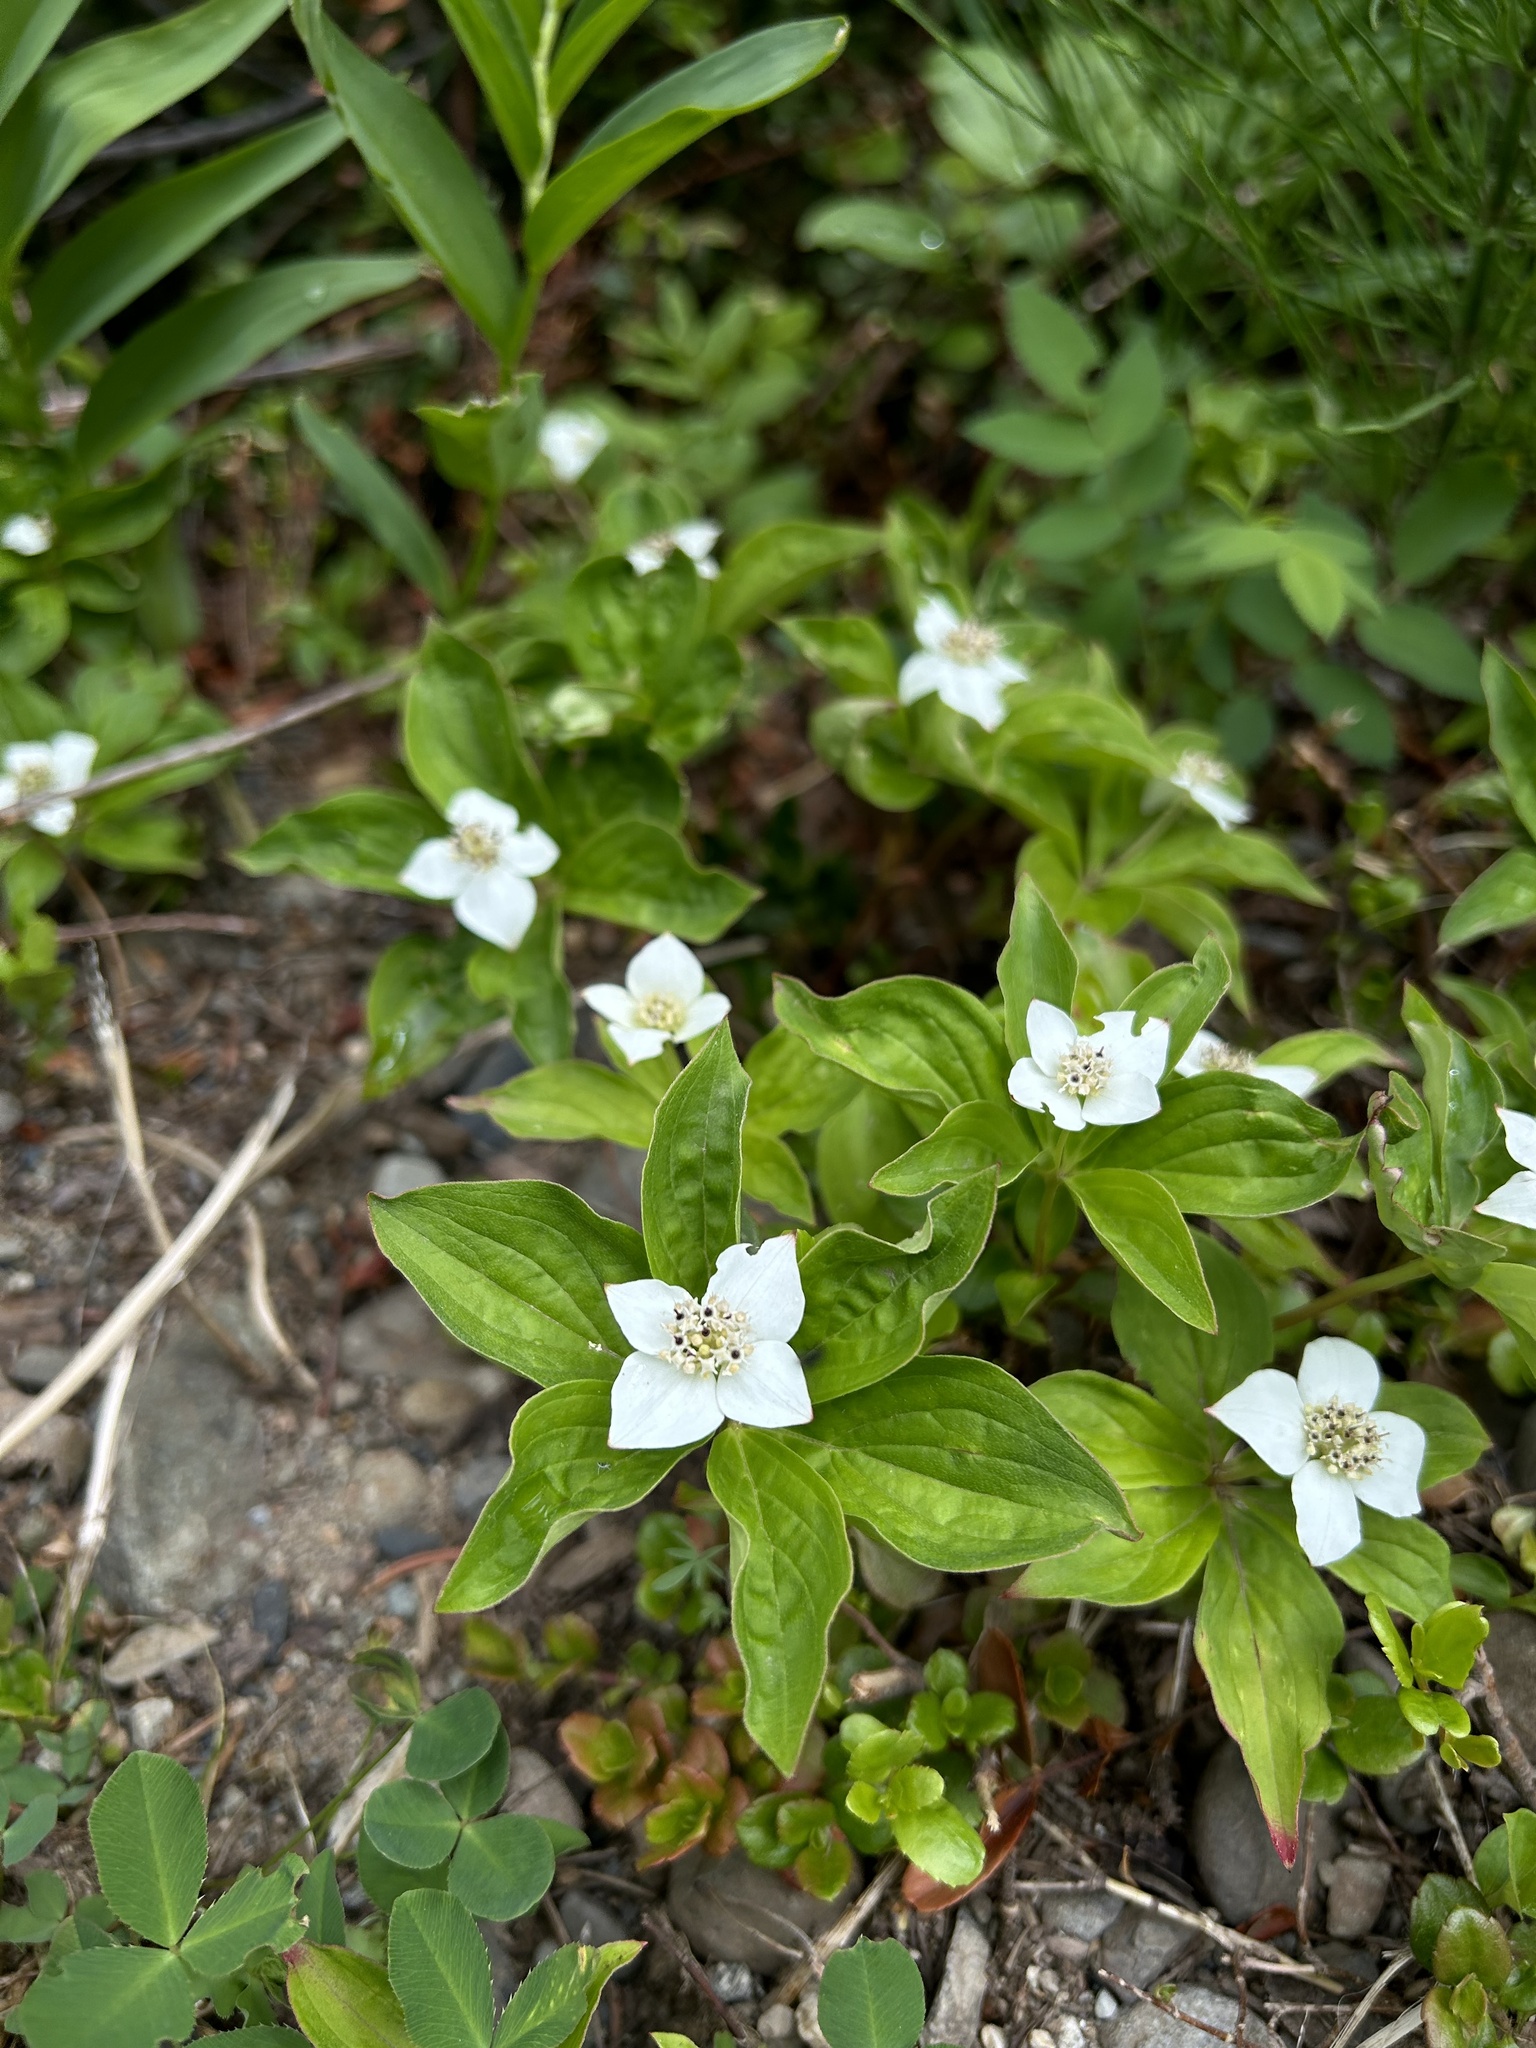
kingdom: Plantae
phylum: Tracheophyta
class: Magnoliopsida
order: Cornales
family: Cornaceae
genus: Cornus
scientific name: Cornus canadensis
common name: Creeping dogwood
